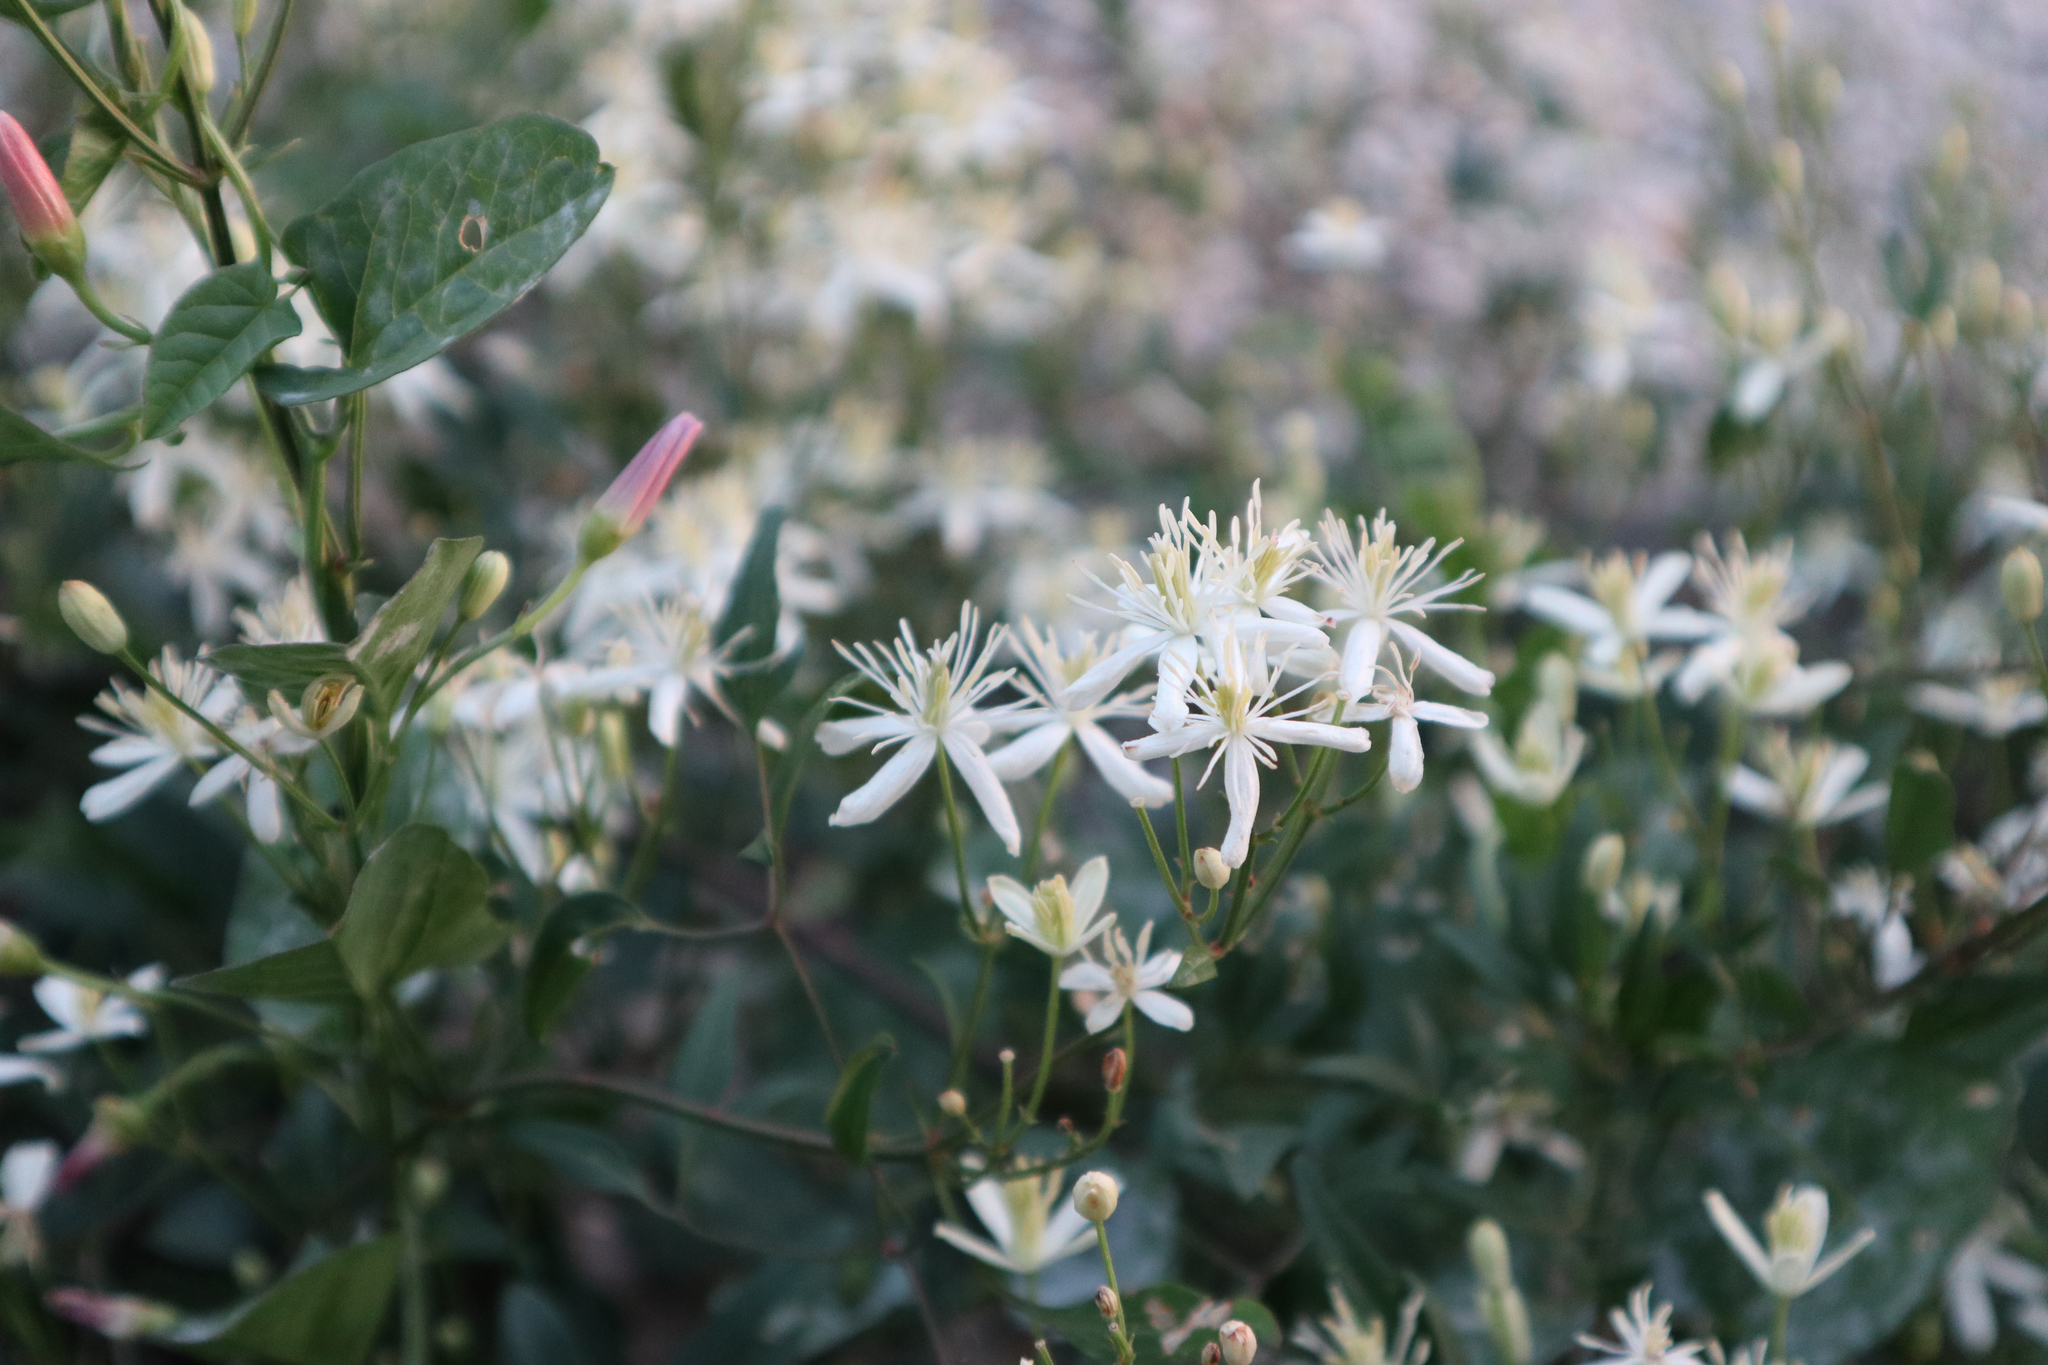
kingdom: Plantae
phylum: Tracheophyta
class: Magnoliopsida
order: Ranunculales
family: Ranunculaceae
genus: Clematis
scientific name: Clematis flammula
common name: Virgin's-bower
